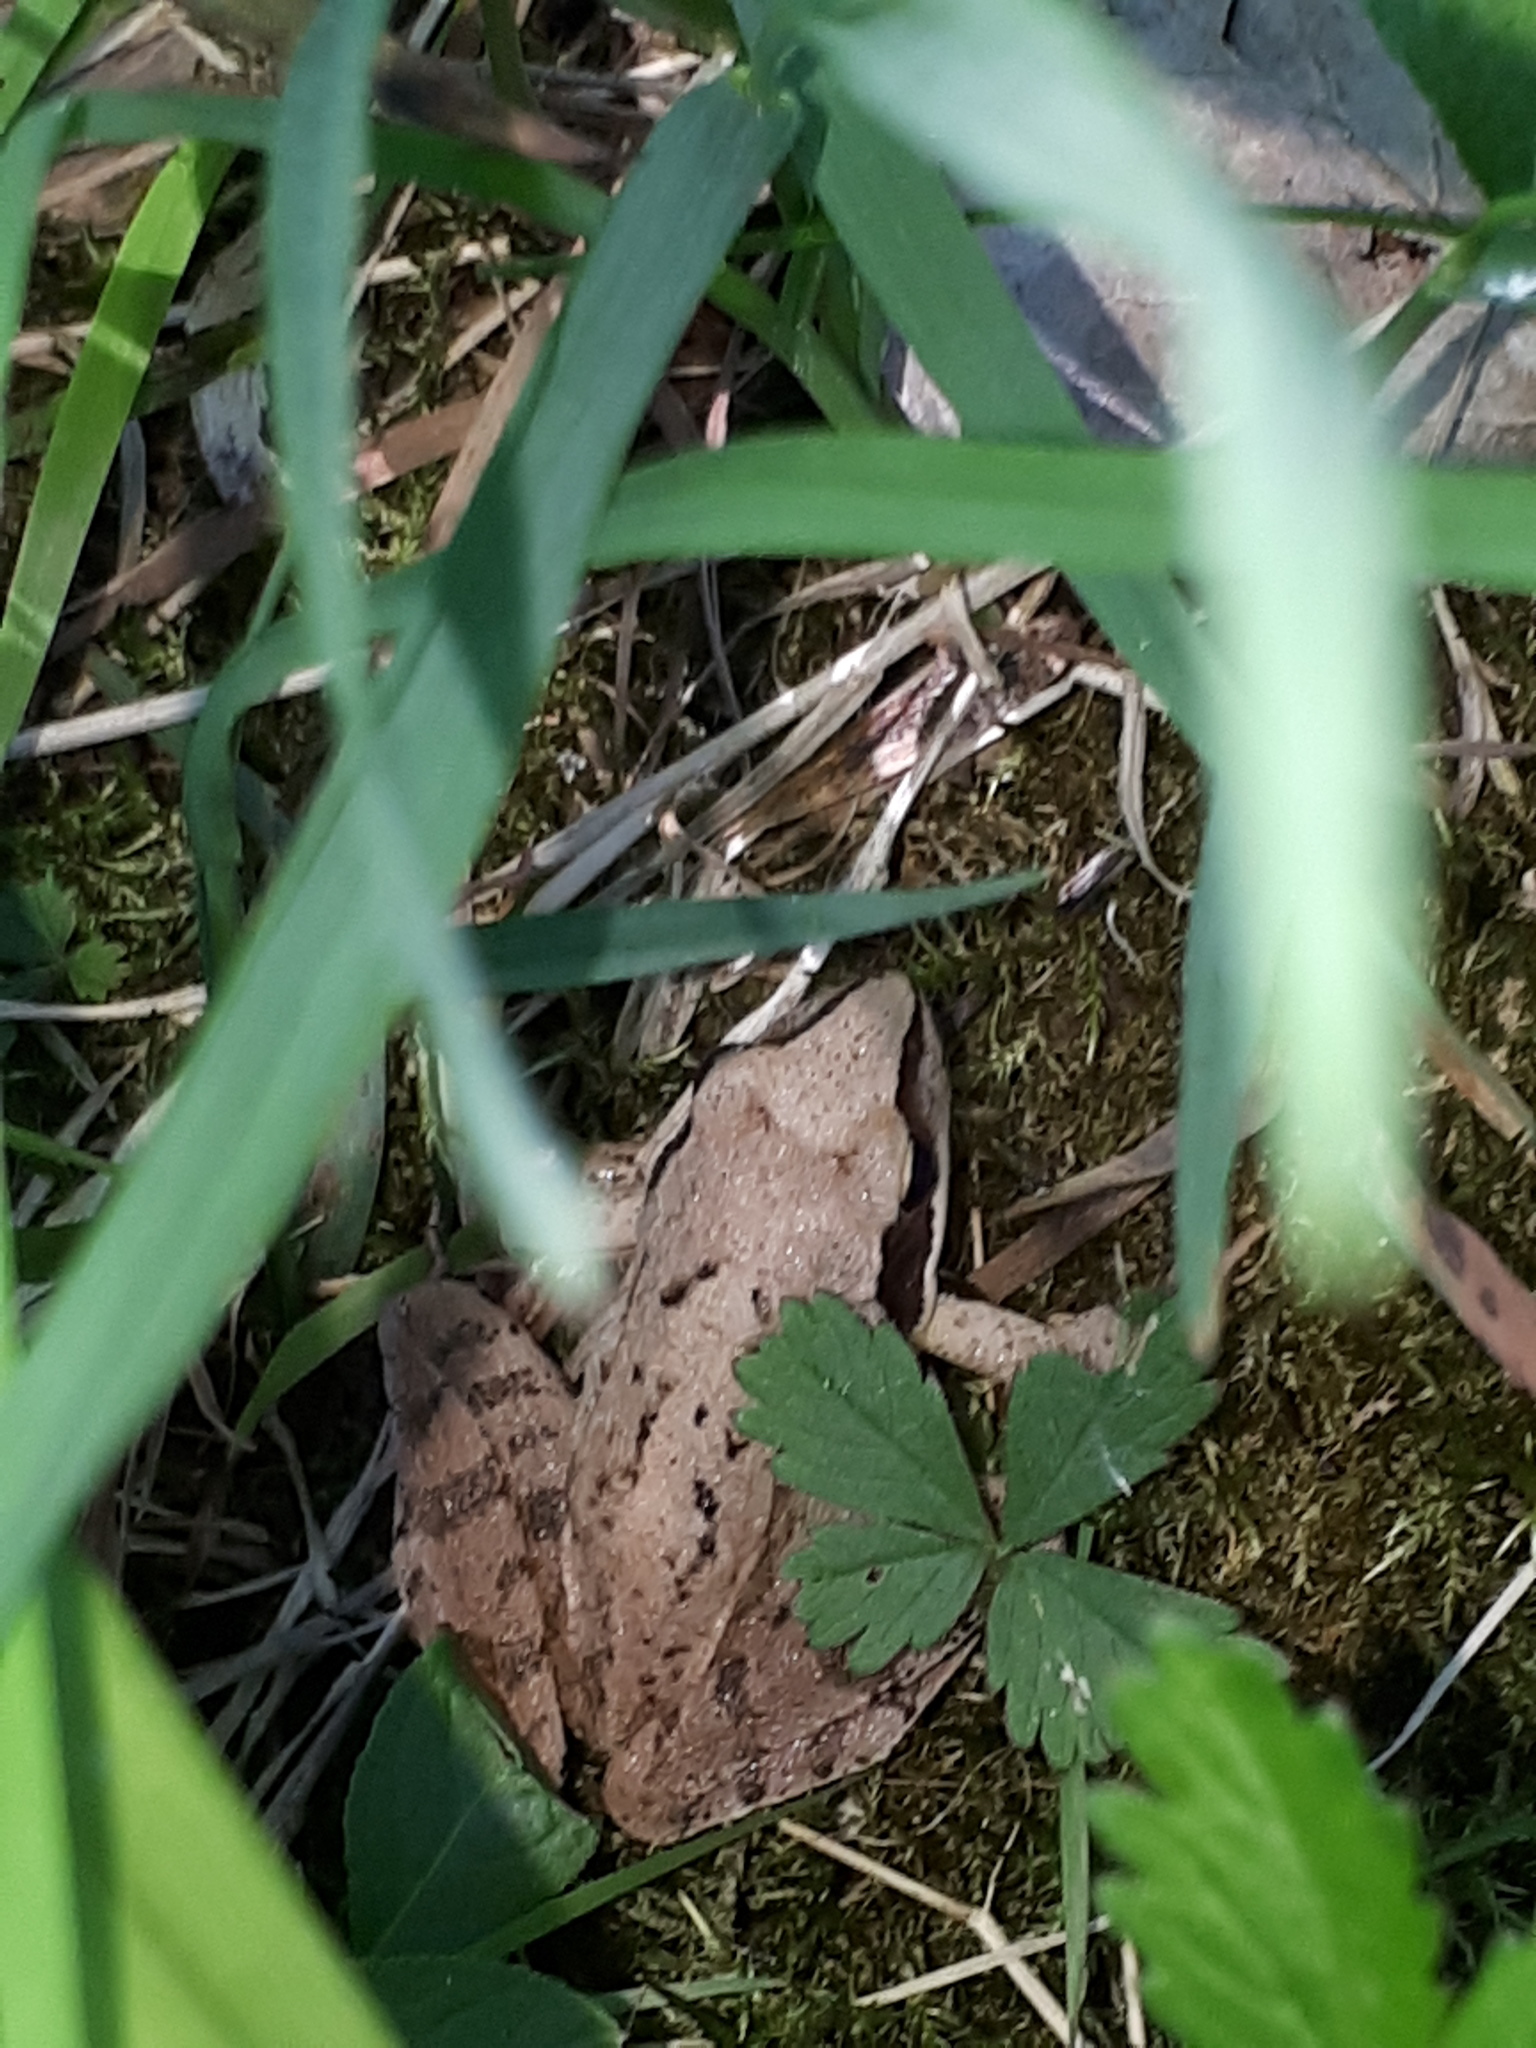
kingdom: Animalia
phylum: Chordata
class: Amphibia
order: Anura
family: Ranidae
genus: Rana
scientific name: Rana dalmatina
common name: Agile frog
